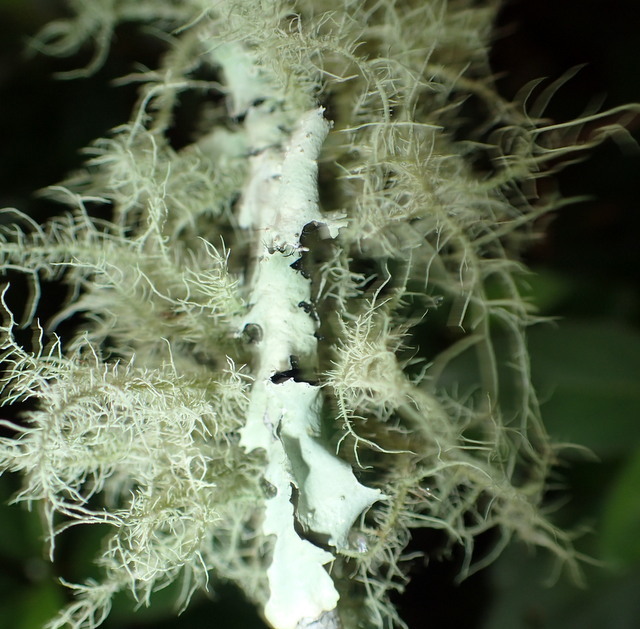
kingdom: Fungi
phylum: Ascomycota
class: Lecanoromycetes
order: Lecanorales
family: Parmeliaceae
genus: Usnea
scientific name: Usnea strigosa
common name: Bushy beard lichen
